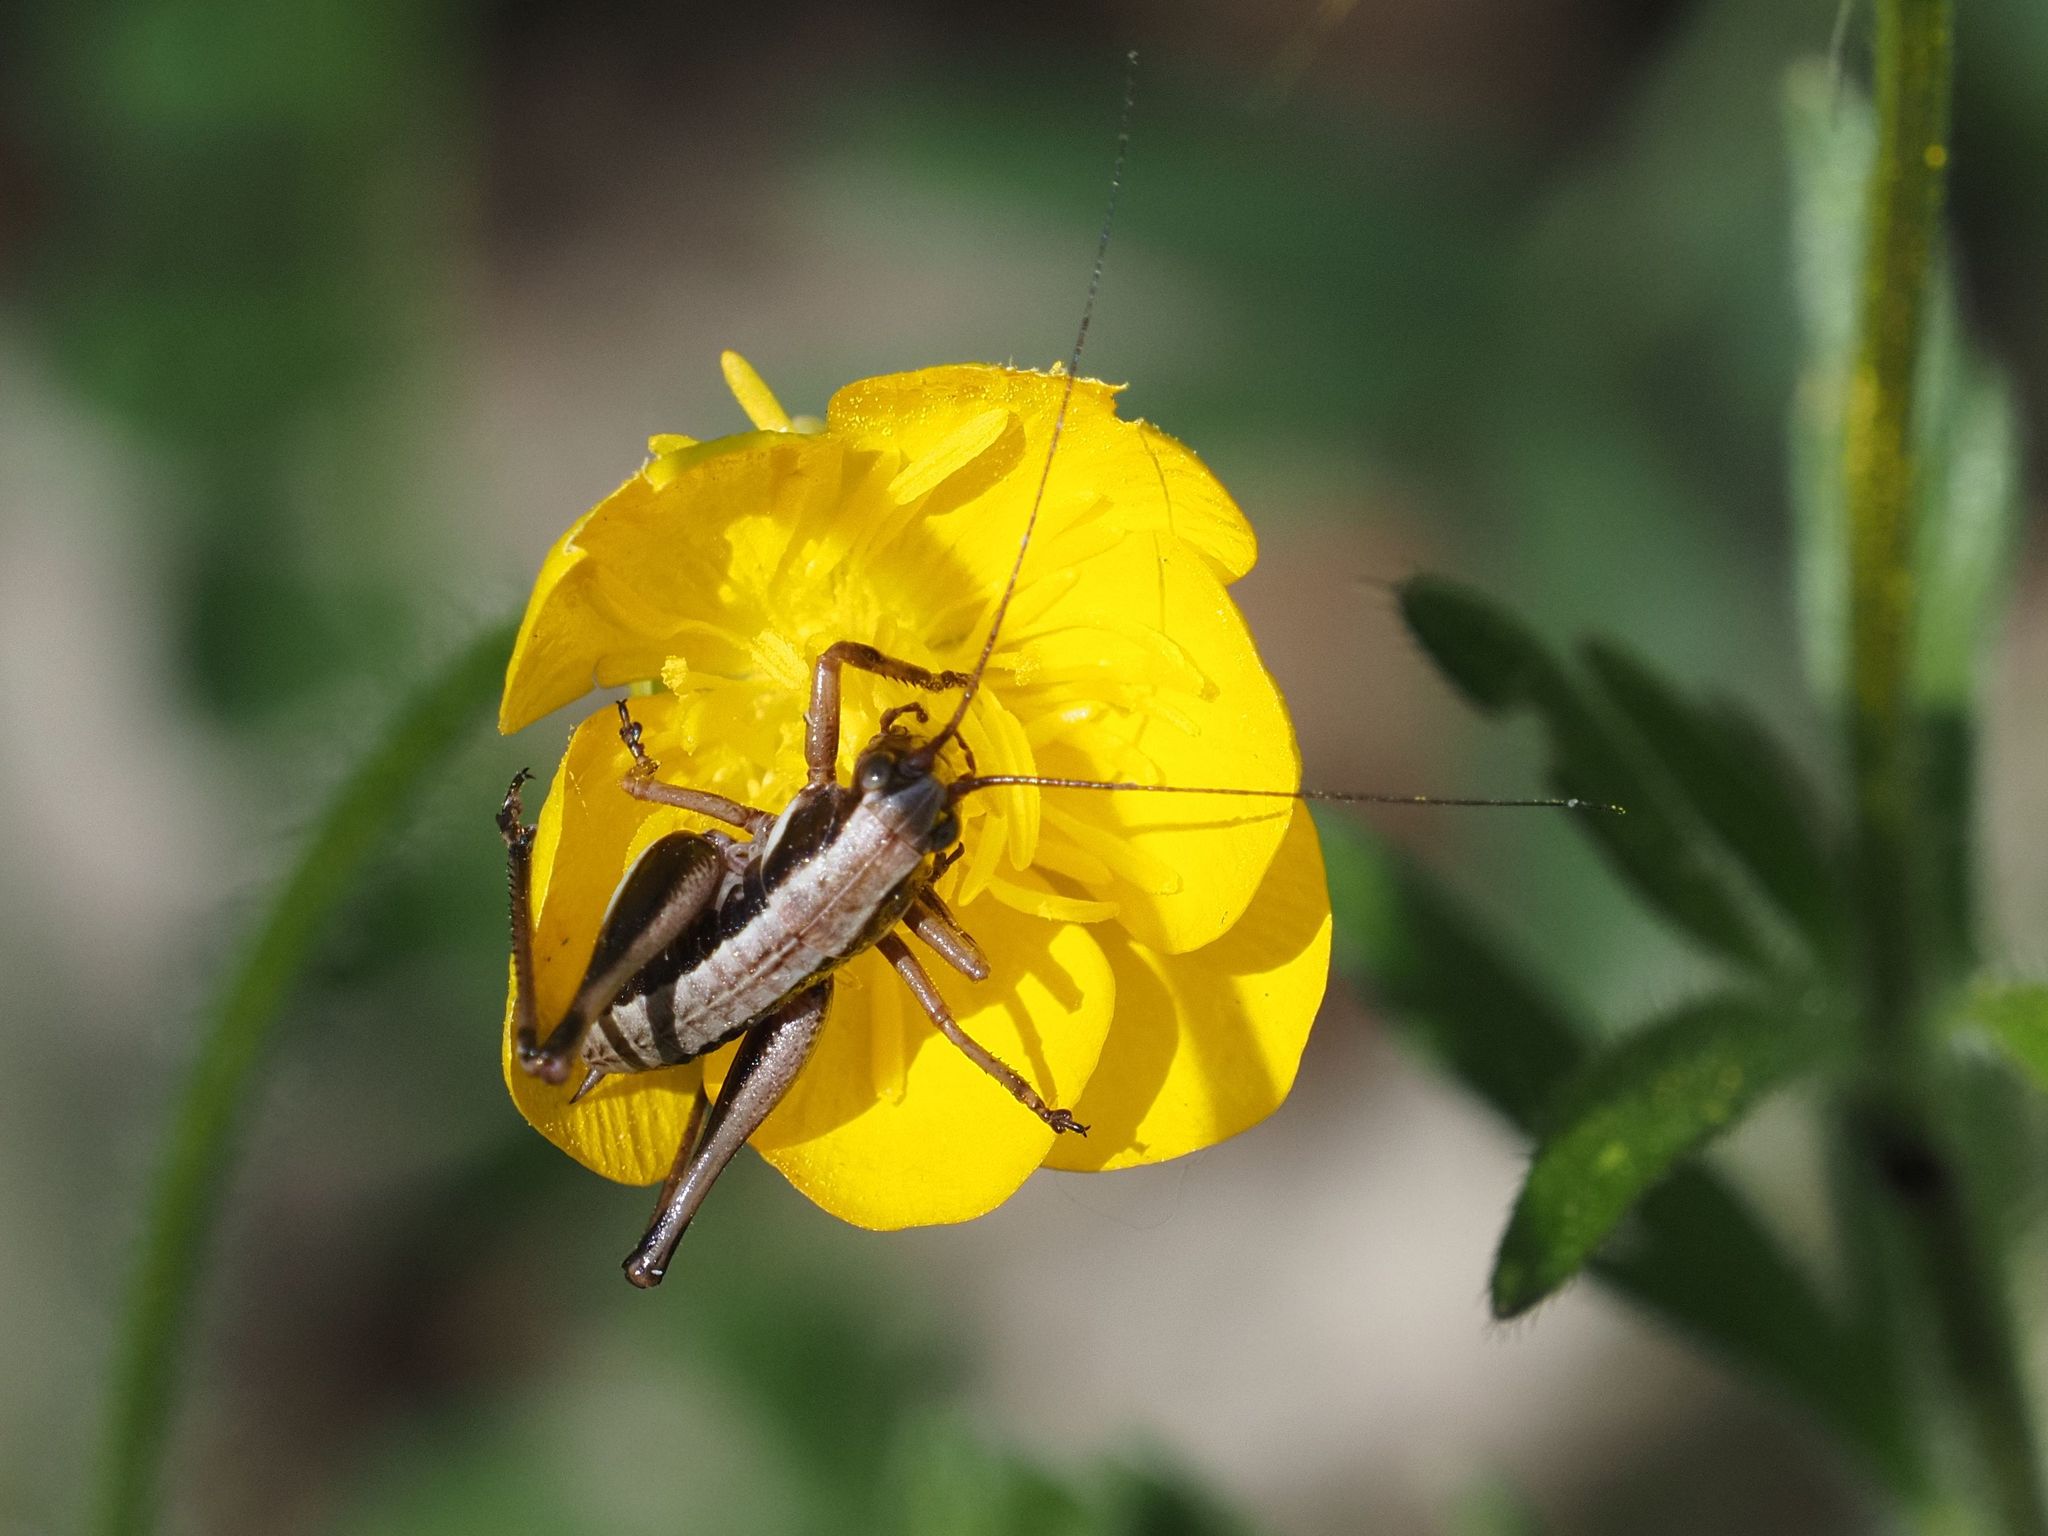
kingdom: Animalia
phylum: Arthropoda
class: Insecta
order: Orthoptera
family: Tettigoniidae
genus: Pholidoptera
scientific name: Pholidoptera aptera
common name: Alpine dark bush-cricket
